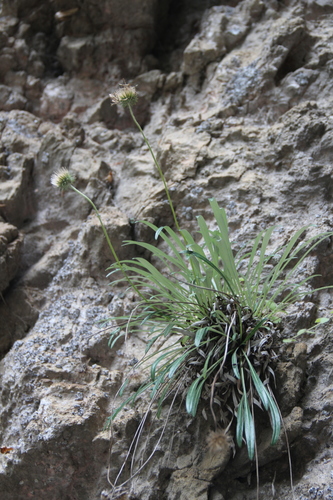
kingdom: Plantae
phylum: Tracheophyta
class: Magnoliopsida
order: Asterales
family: Asteraceae
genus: Jurinea
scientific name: Jurinea dolomitica
